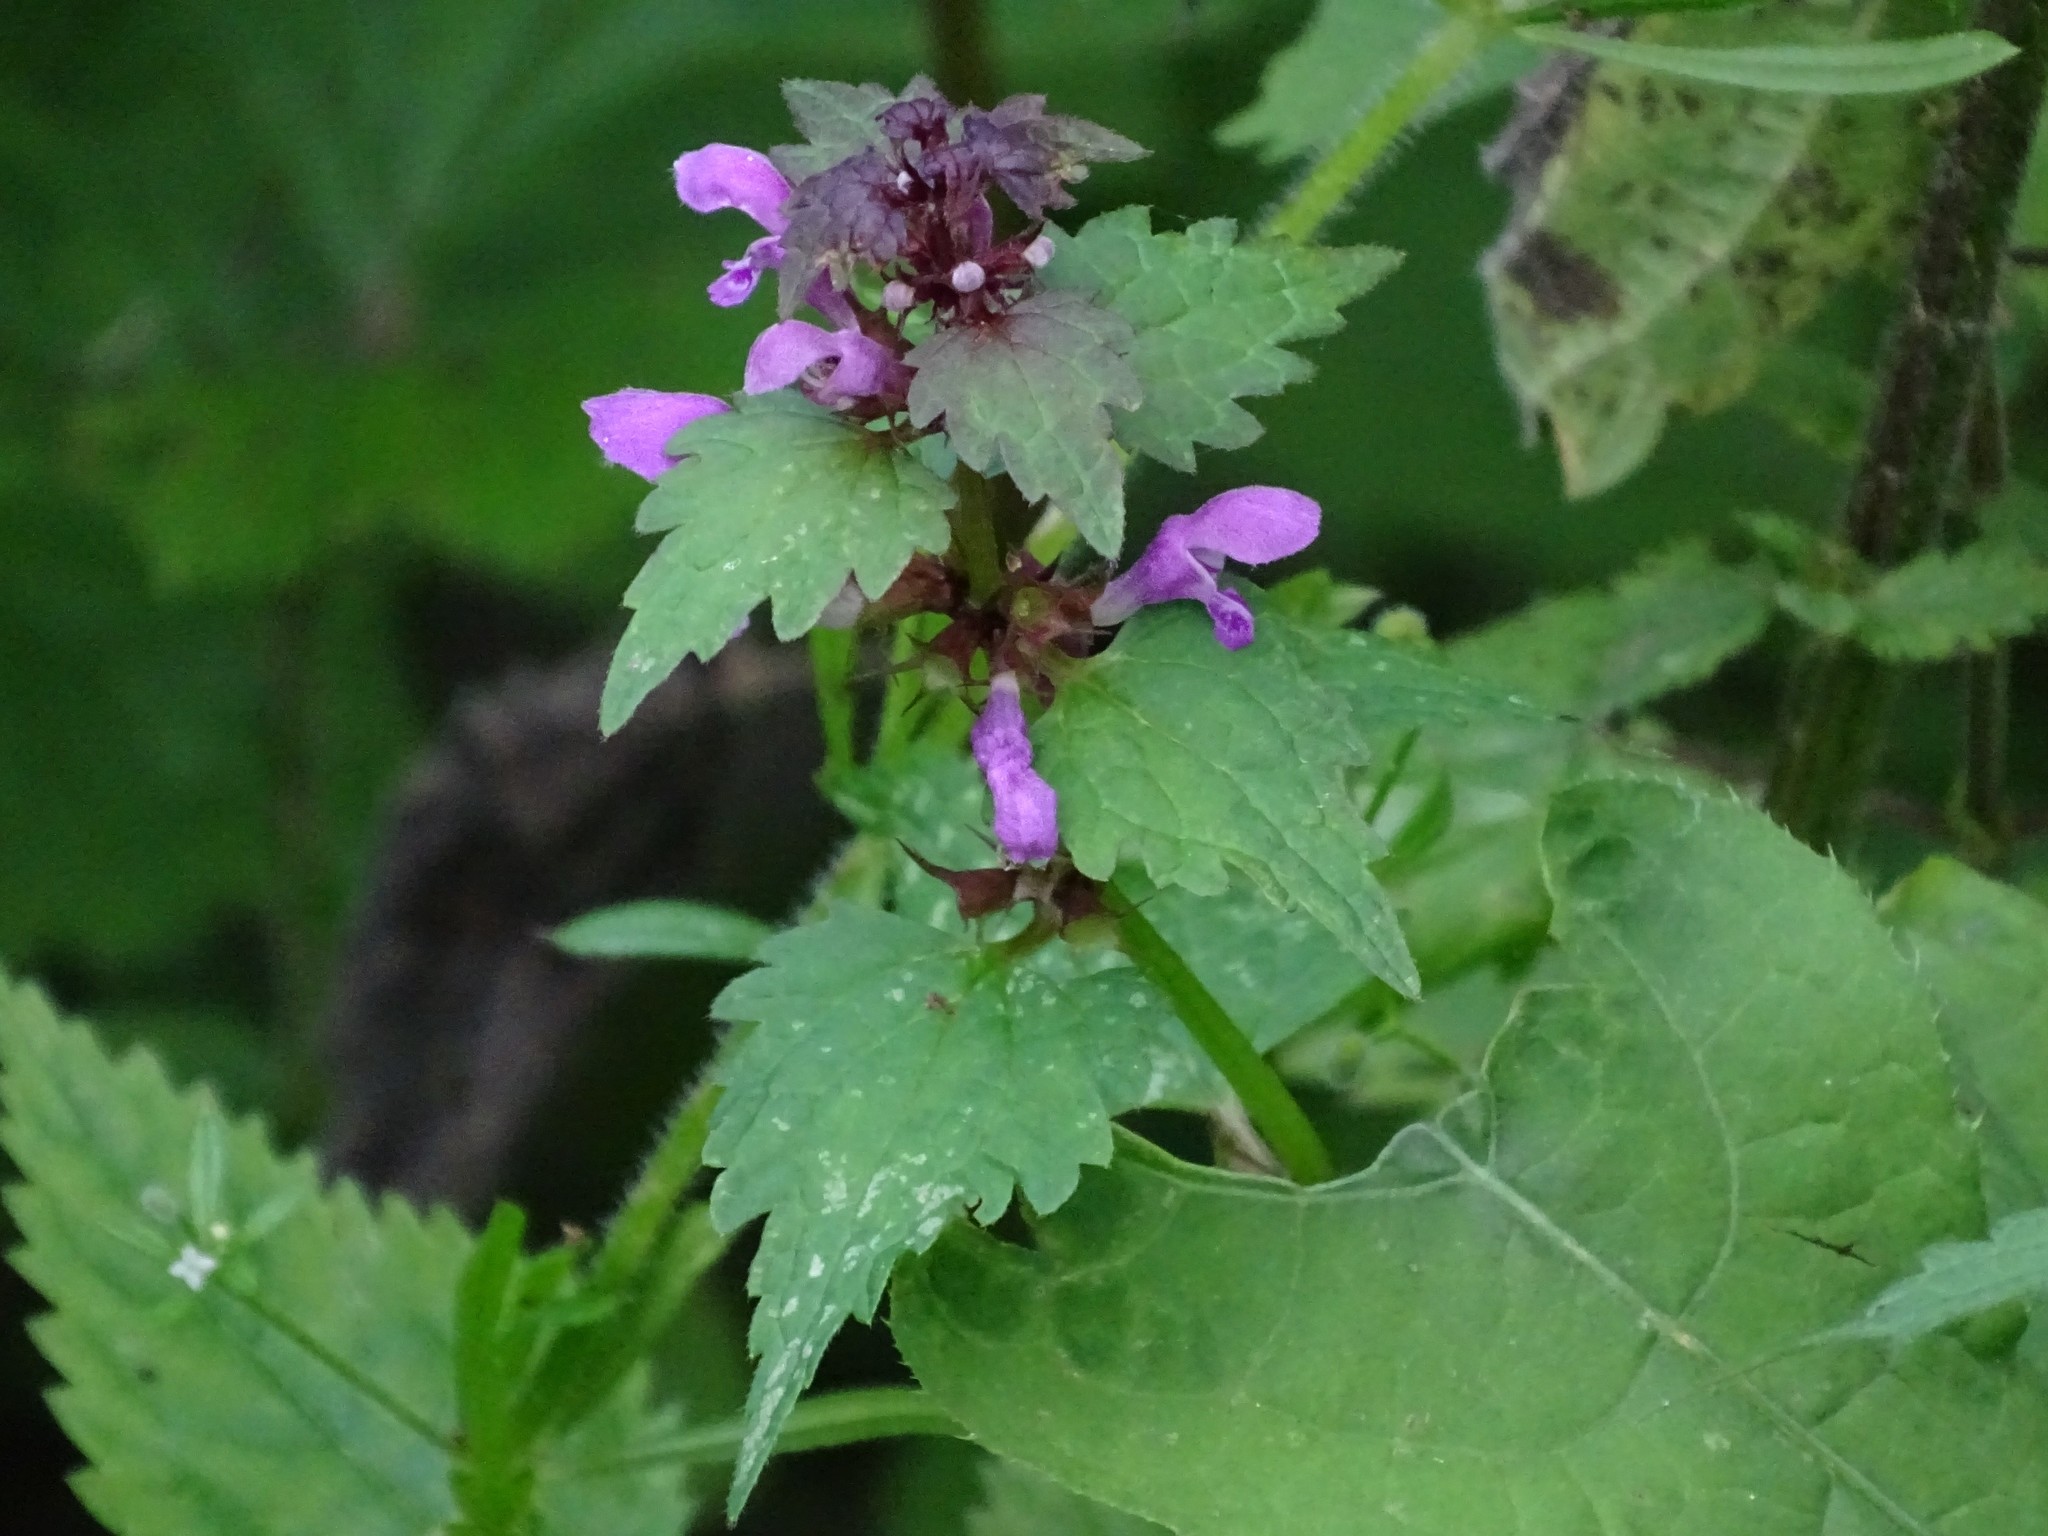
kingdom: Plantae
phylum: Tracheophyta
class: Magnoliopsida
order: Lamiales
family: Lamiaceae
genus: Lamium
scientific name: Lamium maculatum
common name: Spotted dead-nettle
